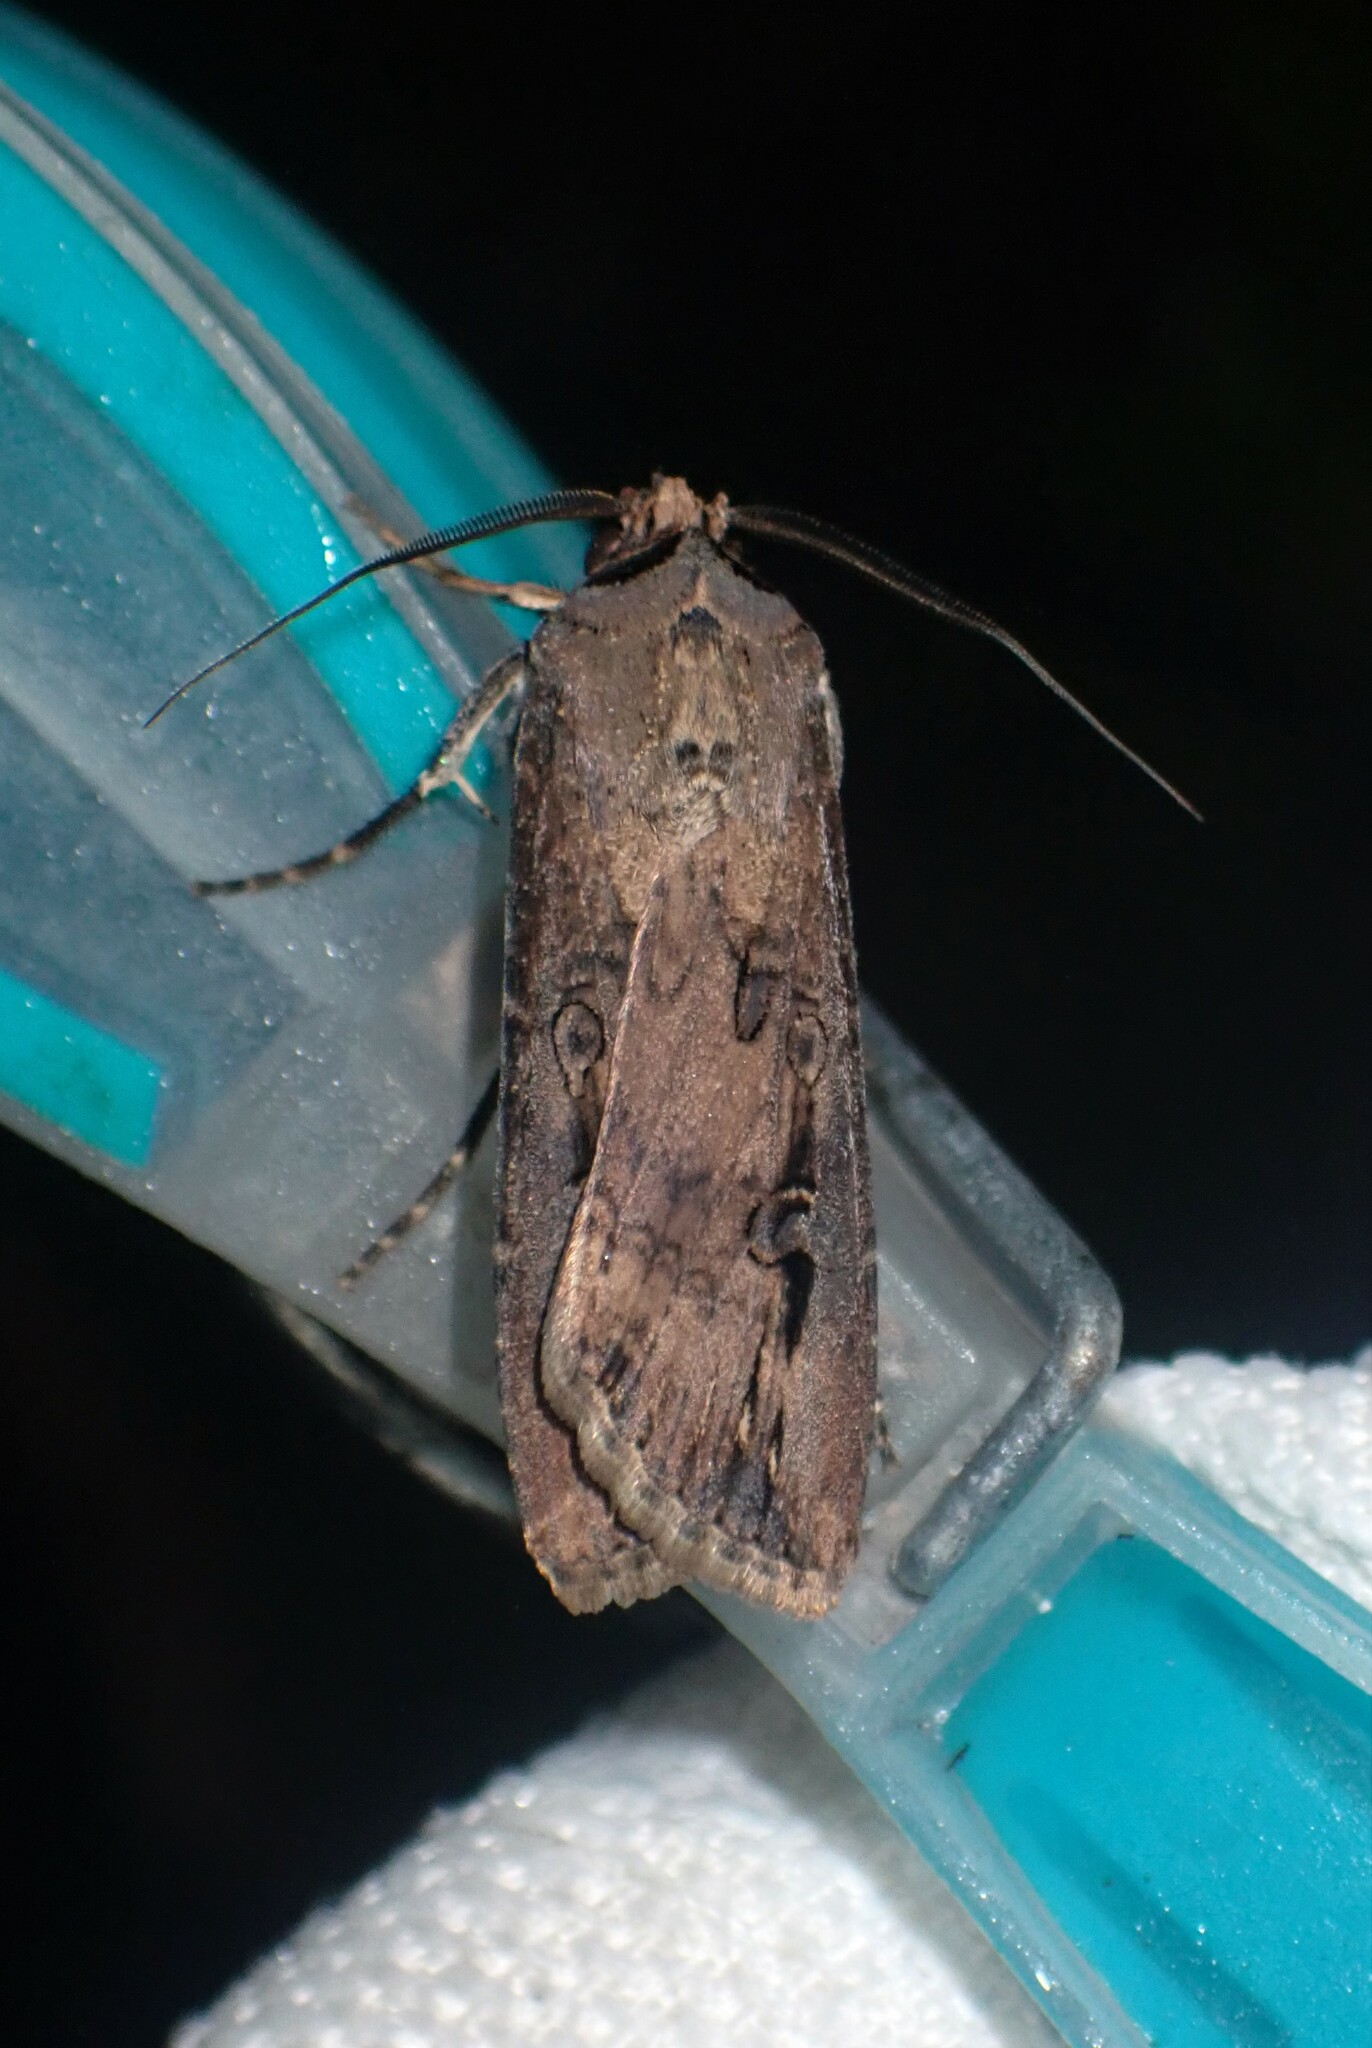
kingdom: Animalia
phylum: Arthropoda
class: Insecta
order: Lepidoptera
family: Noctuidae
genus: Agrotis
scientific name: Agrotis ipsilon
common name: Dark sword-grass
